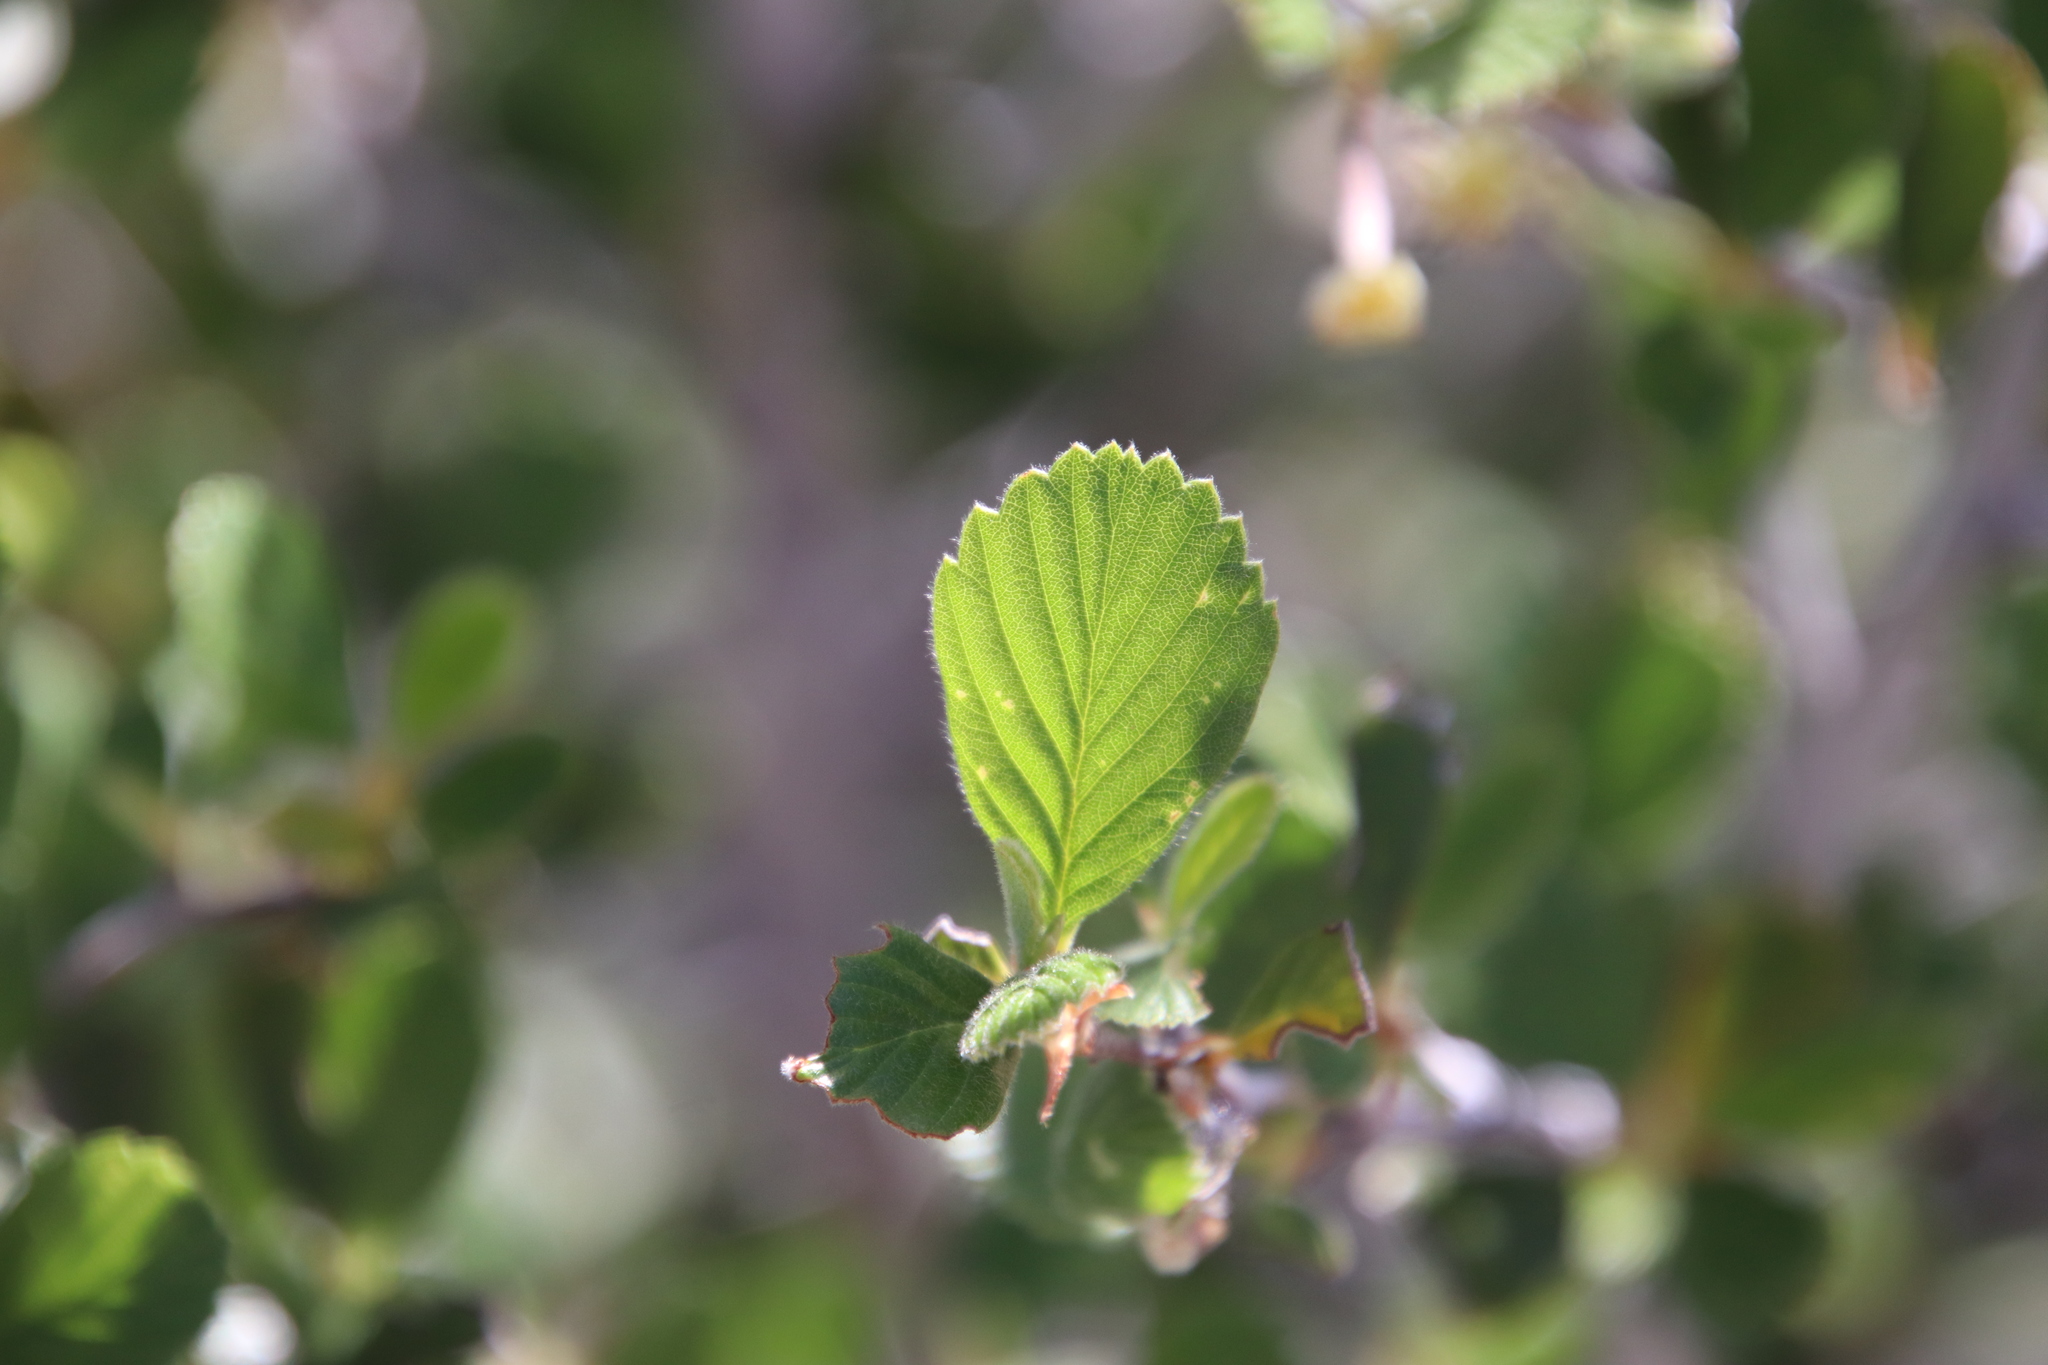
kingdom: Plantae
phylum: Tracheophyta
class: Magnoliopsida
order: Rosales
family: Rosaceae
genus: Cercocarpus
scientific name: Cercocarpus betuloides
